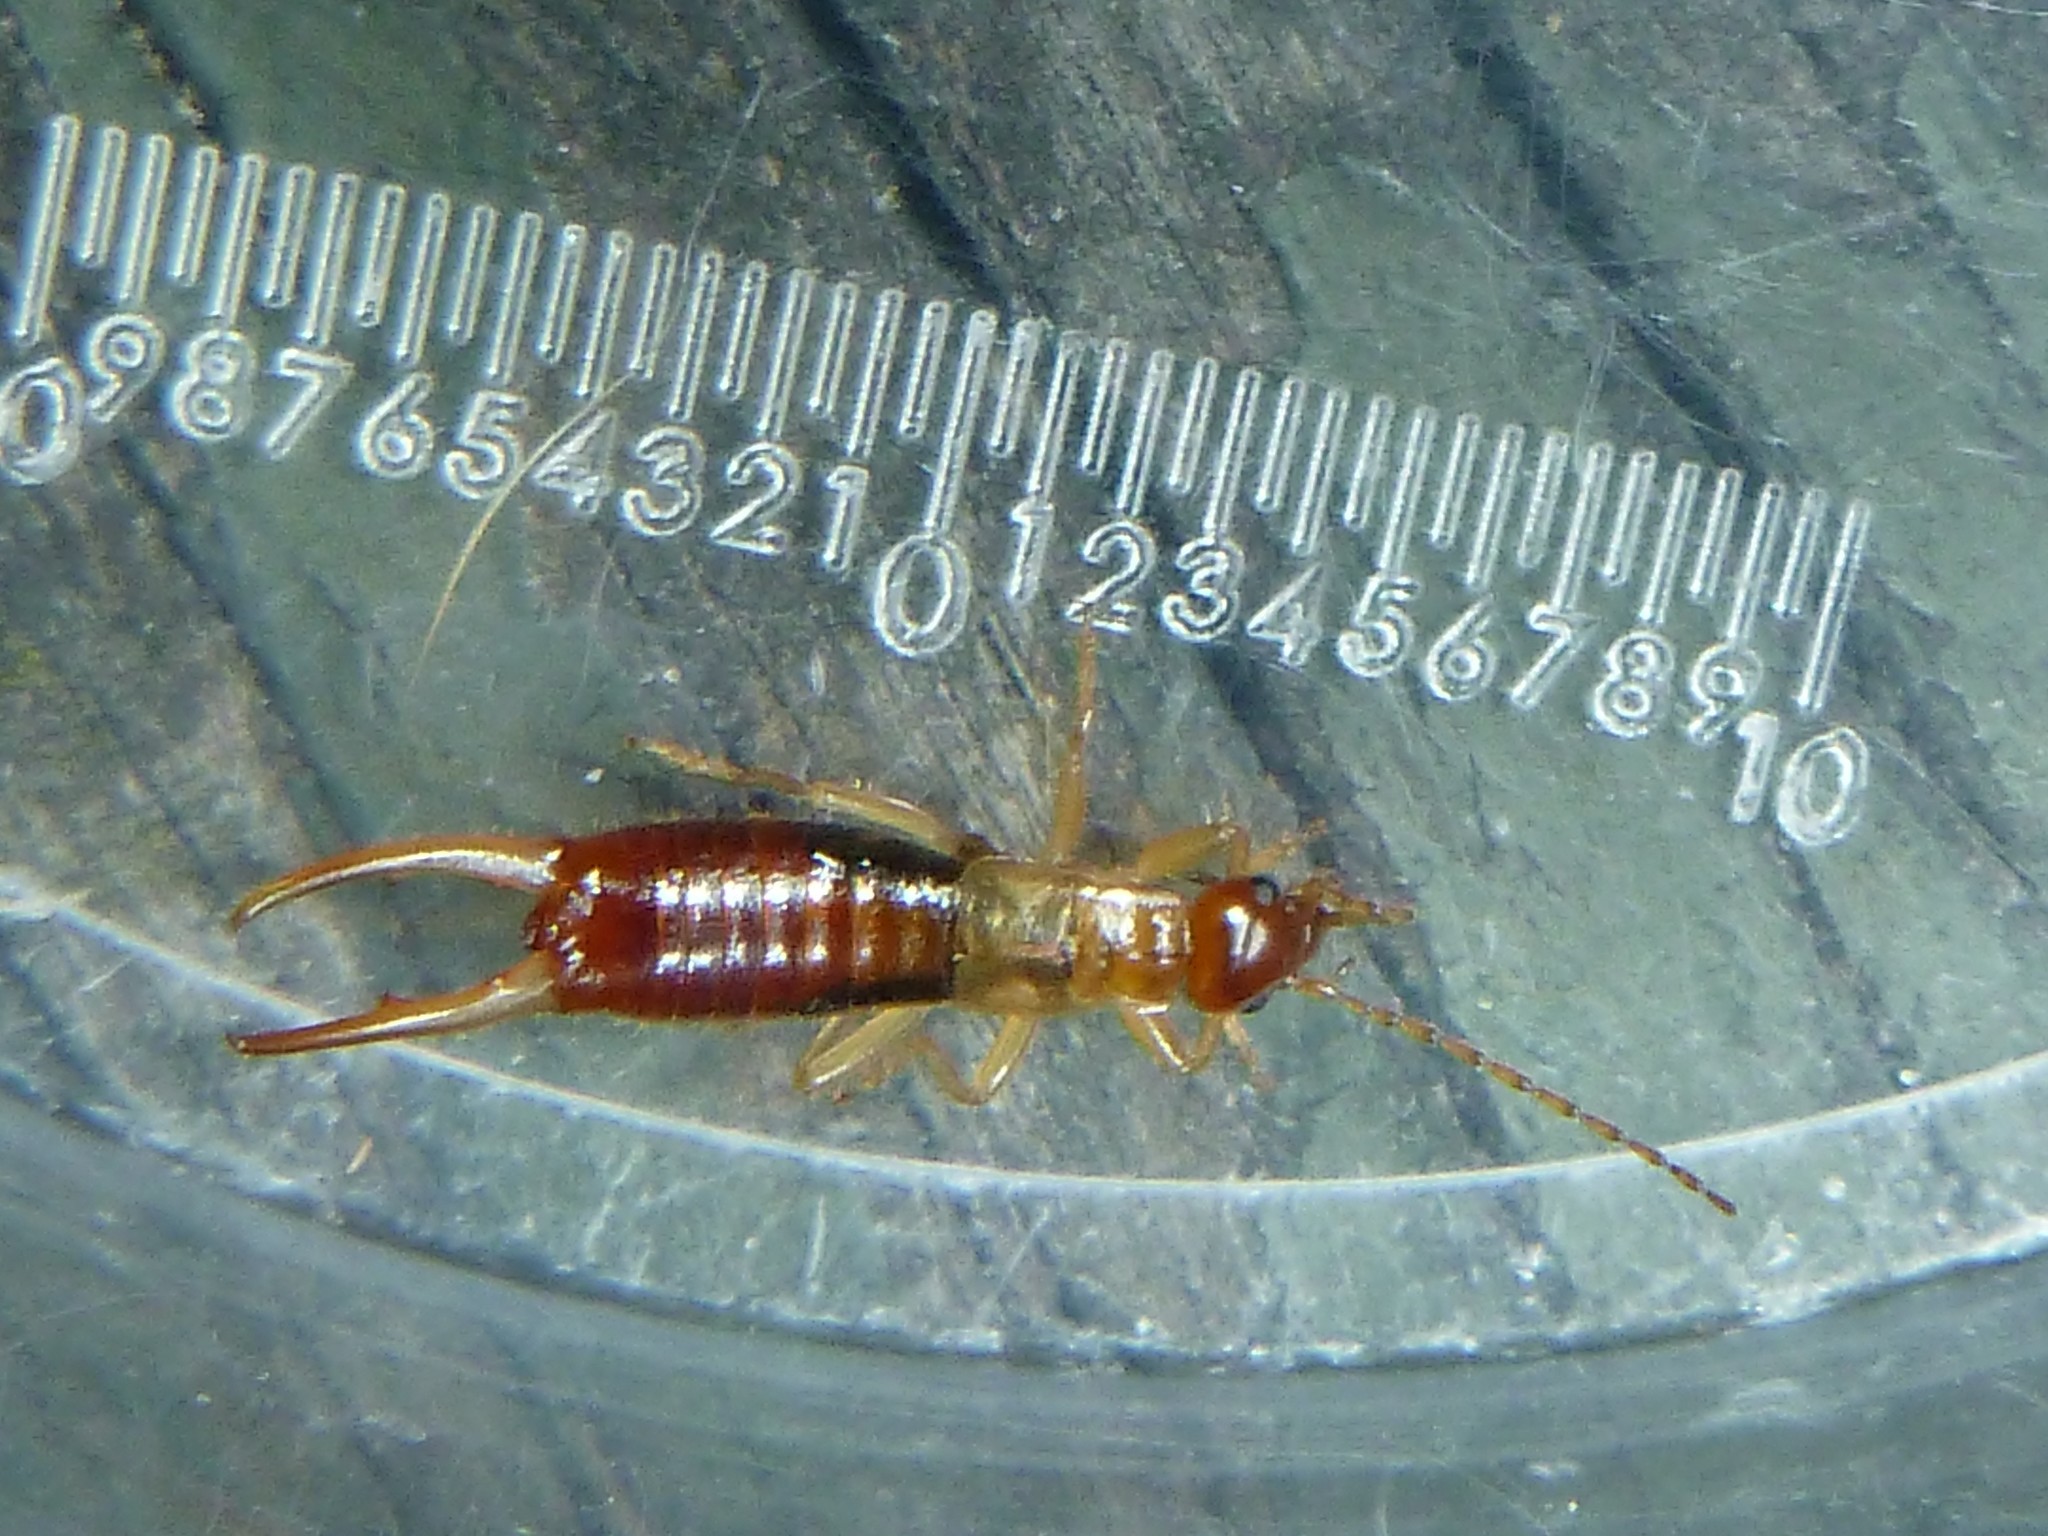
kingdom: Animalia
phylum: Arthropoda
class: Insecta
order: Dermaptera
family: Forficulidae
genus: Apterygida
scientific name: Apterygida albipennis
